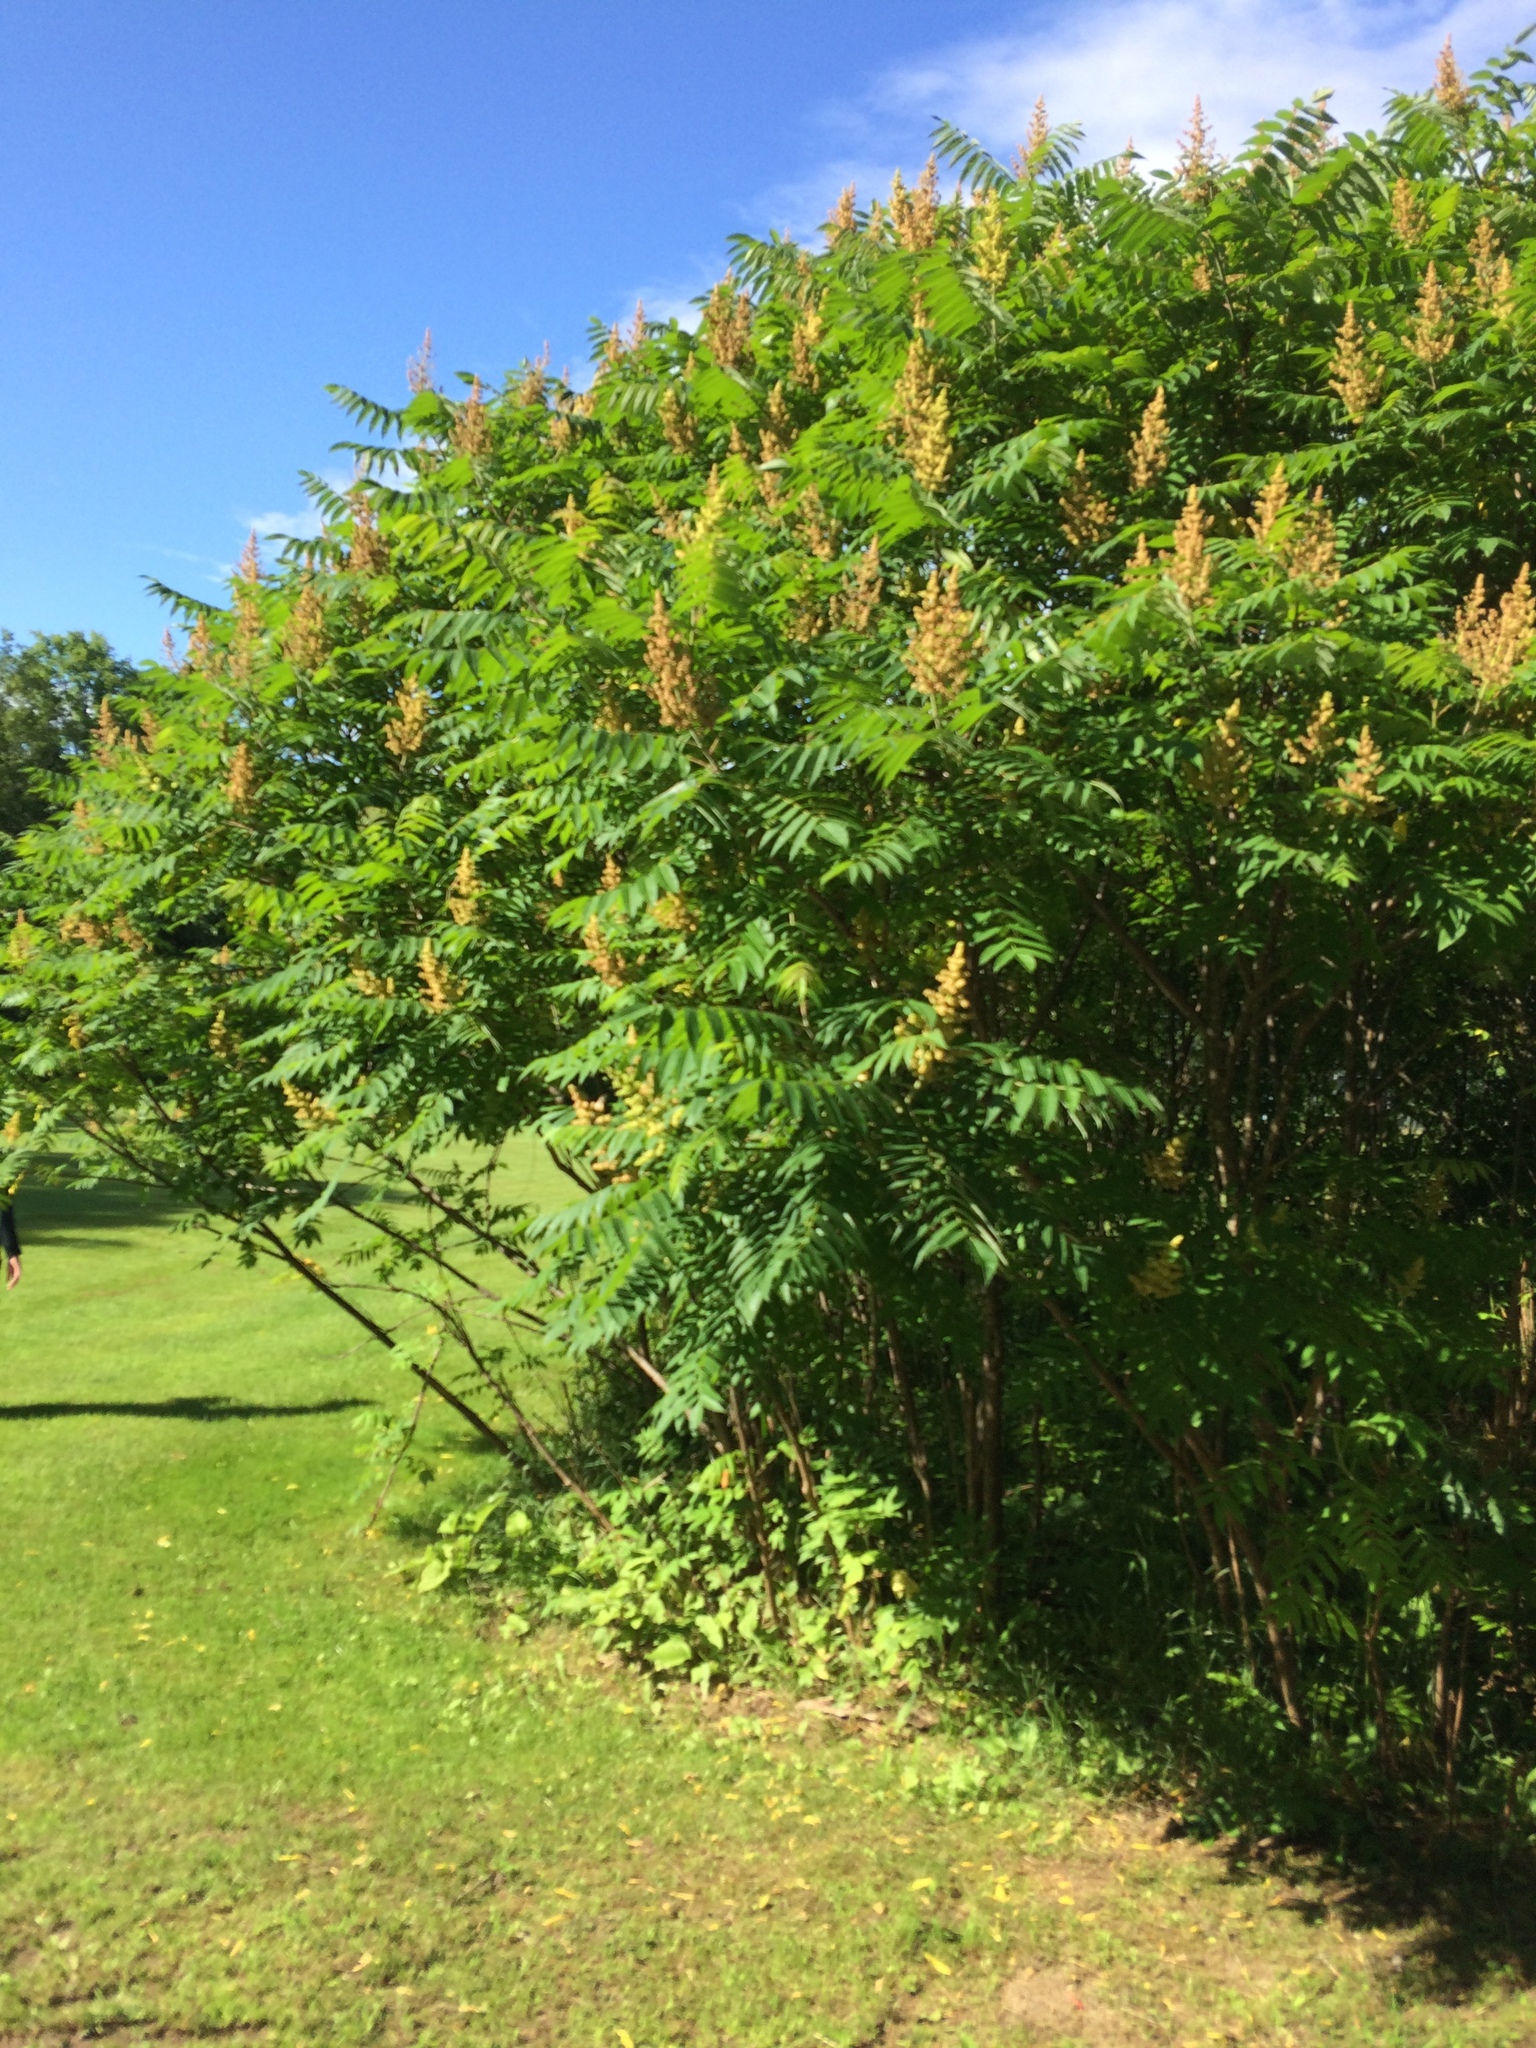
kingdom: Plantae
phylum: Tracheophyta
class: Magnoliopsida
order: Sapindales
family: Anacardiaceae
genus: Rhus
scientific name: Rhus typhina
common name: Staghorn sumac
